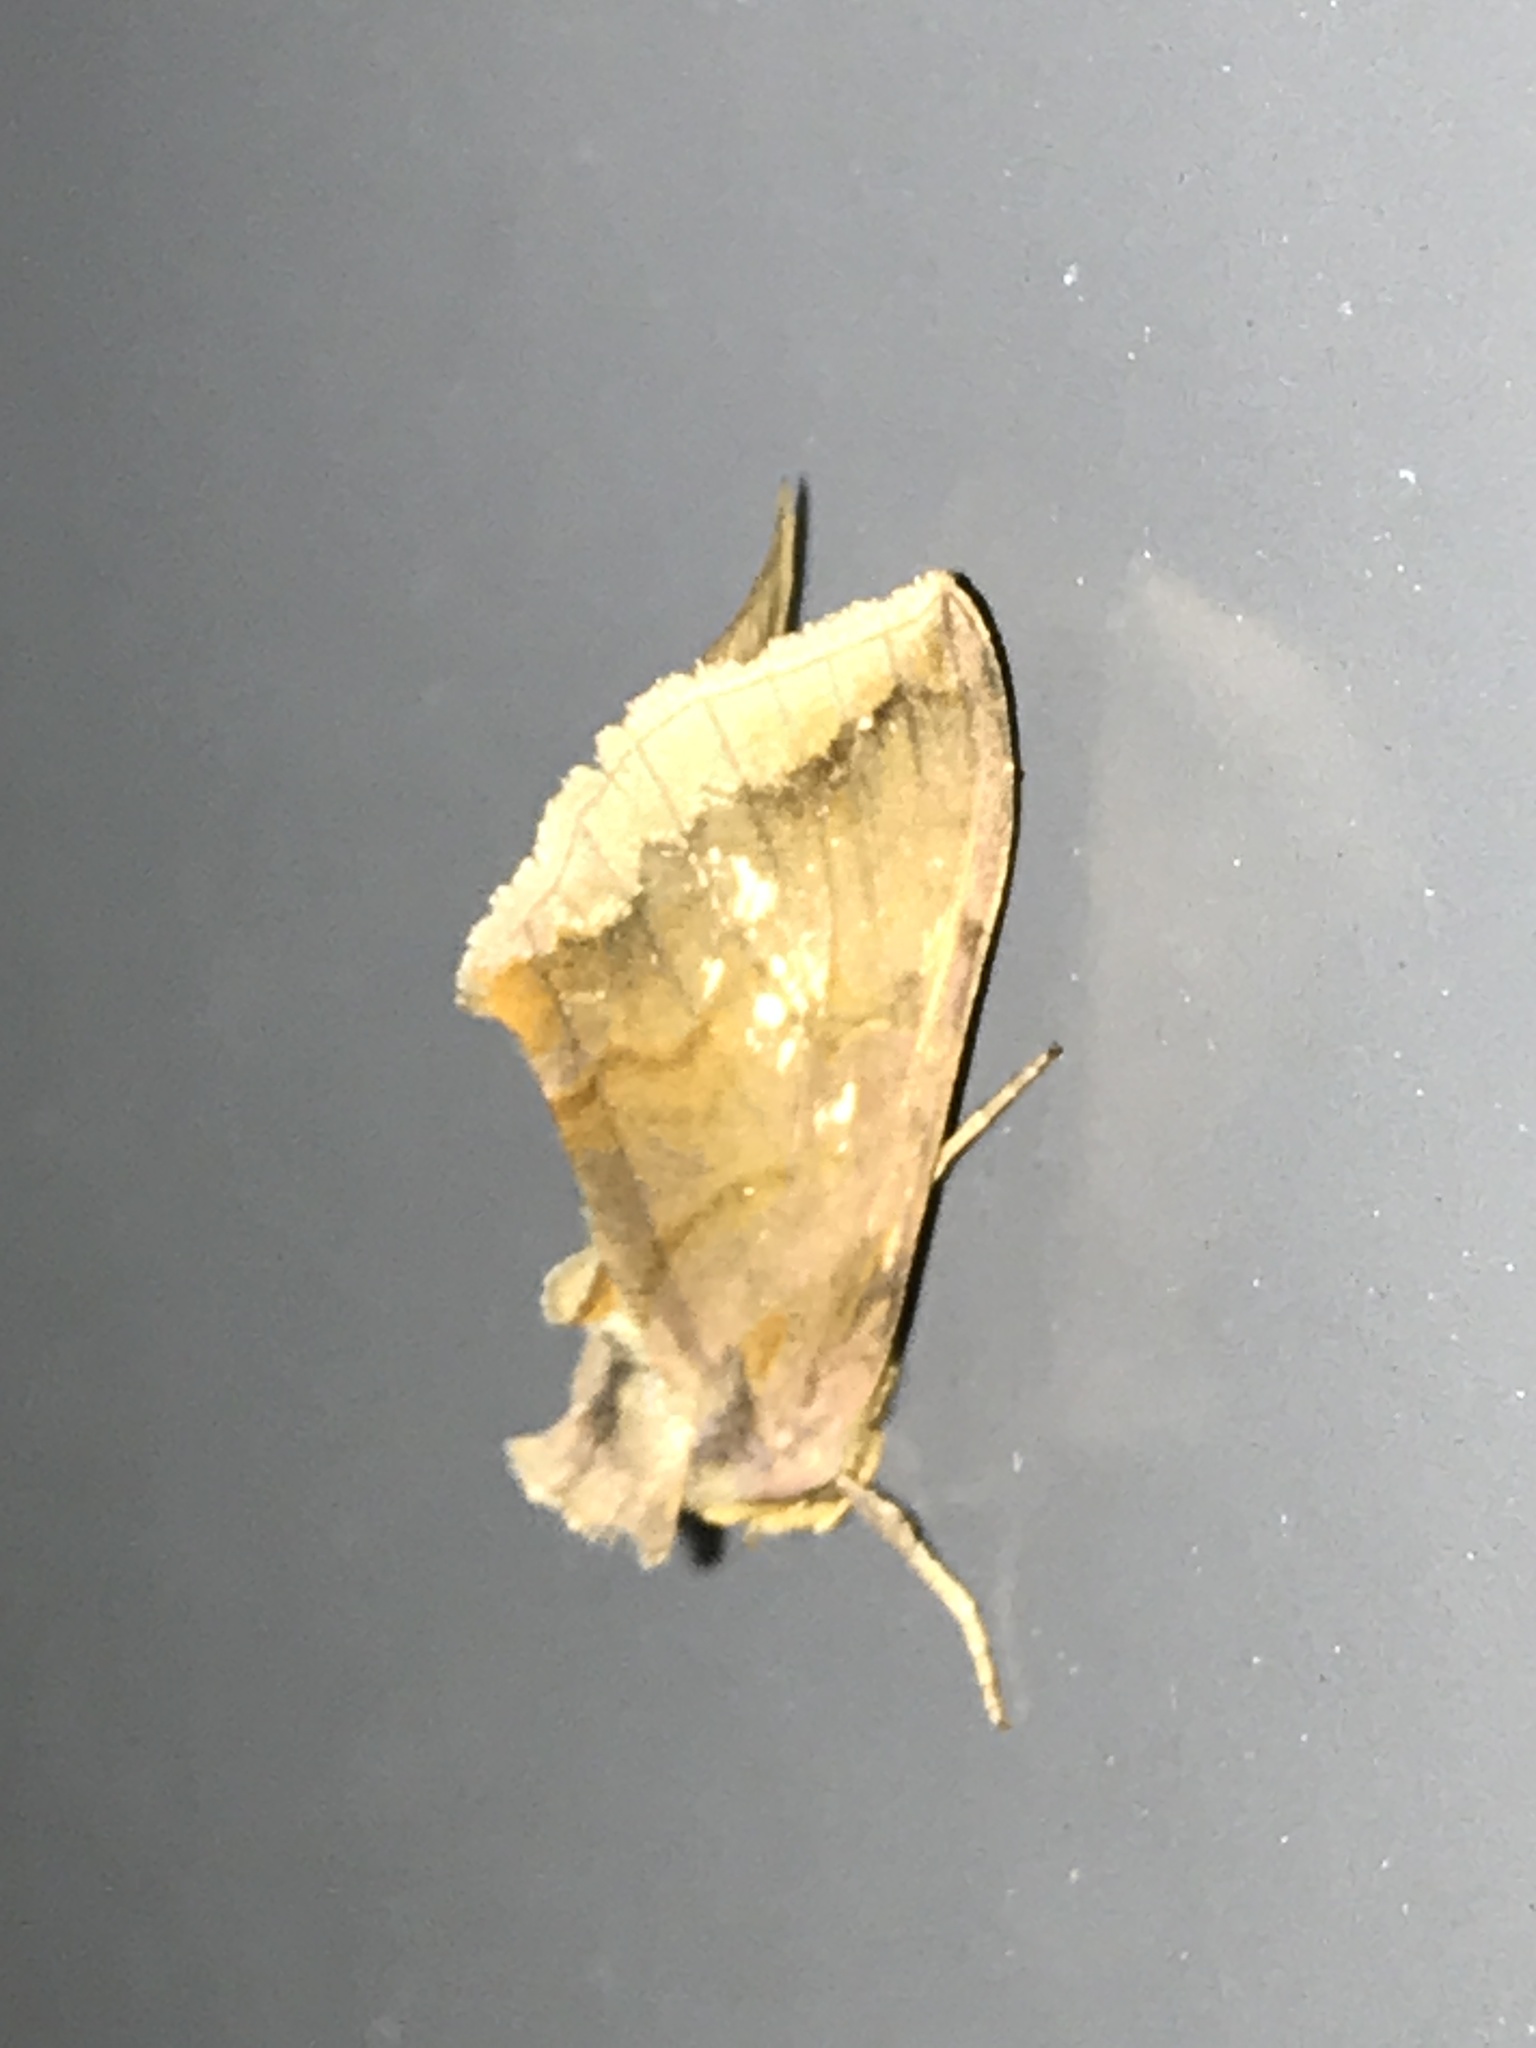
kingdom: Animalia
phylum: Arthropoda
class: Insecta
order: Lepidoptera
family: Noctuidae
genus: Allagrapha
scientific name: Allagrapha aerea
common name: Unspotted looper moth
